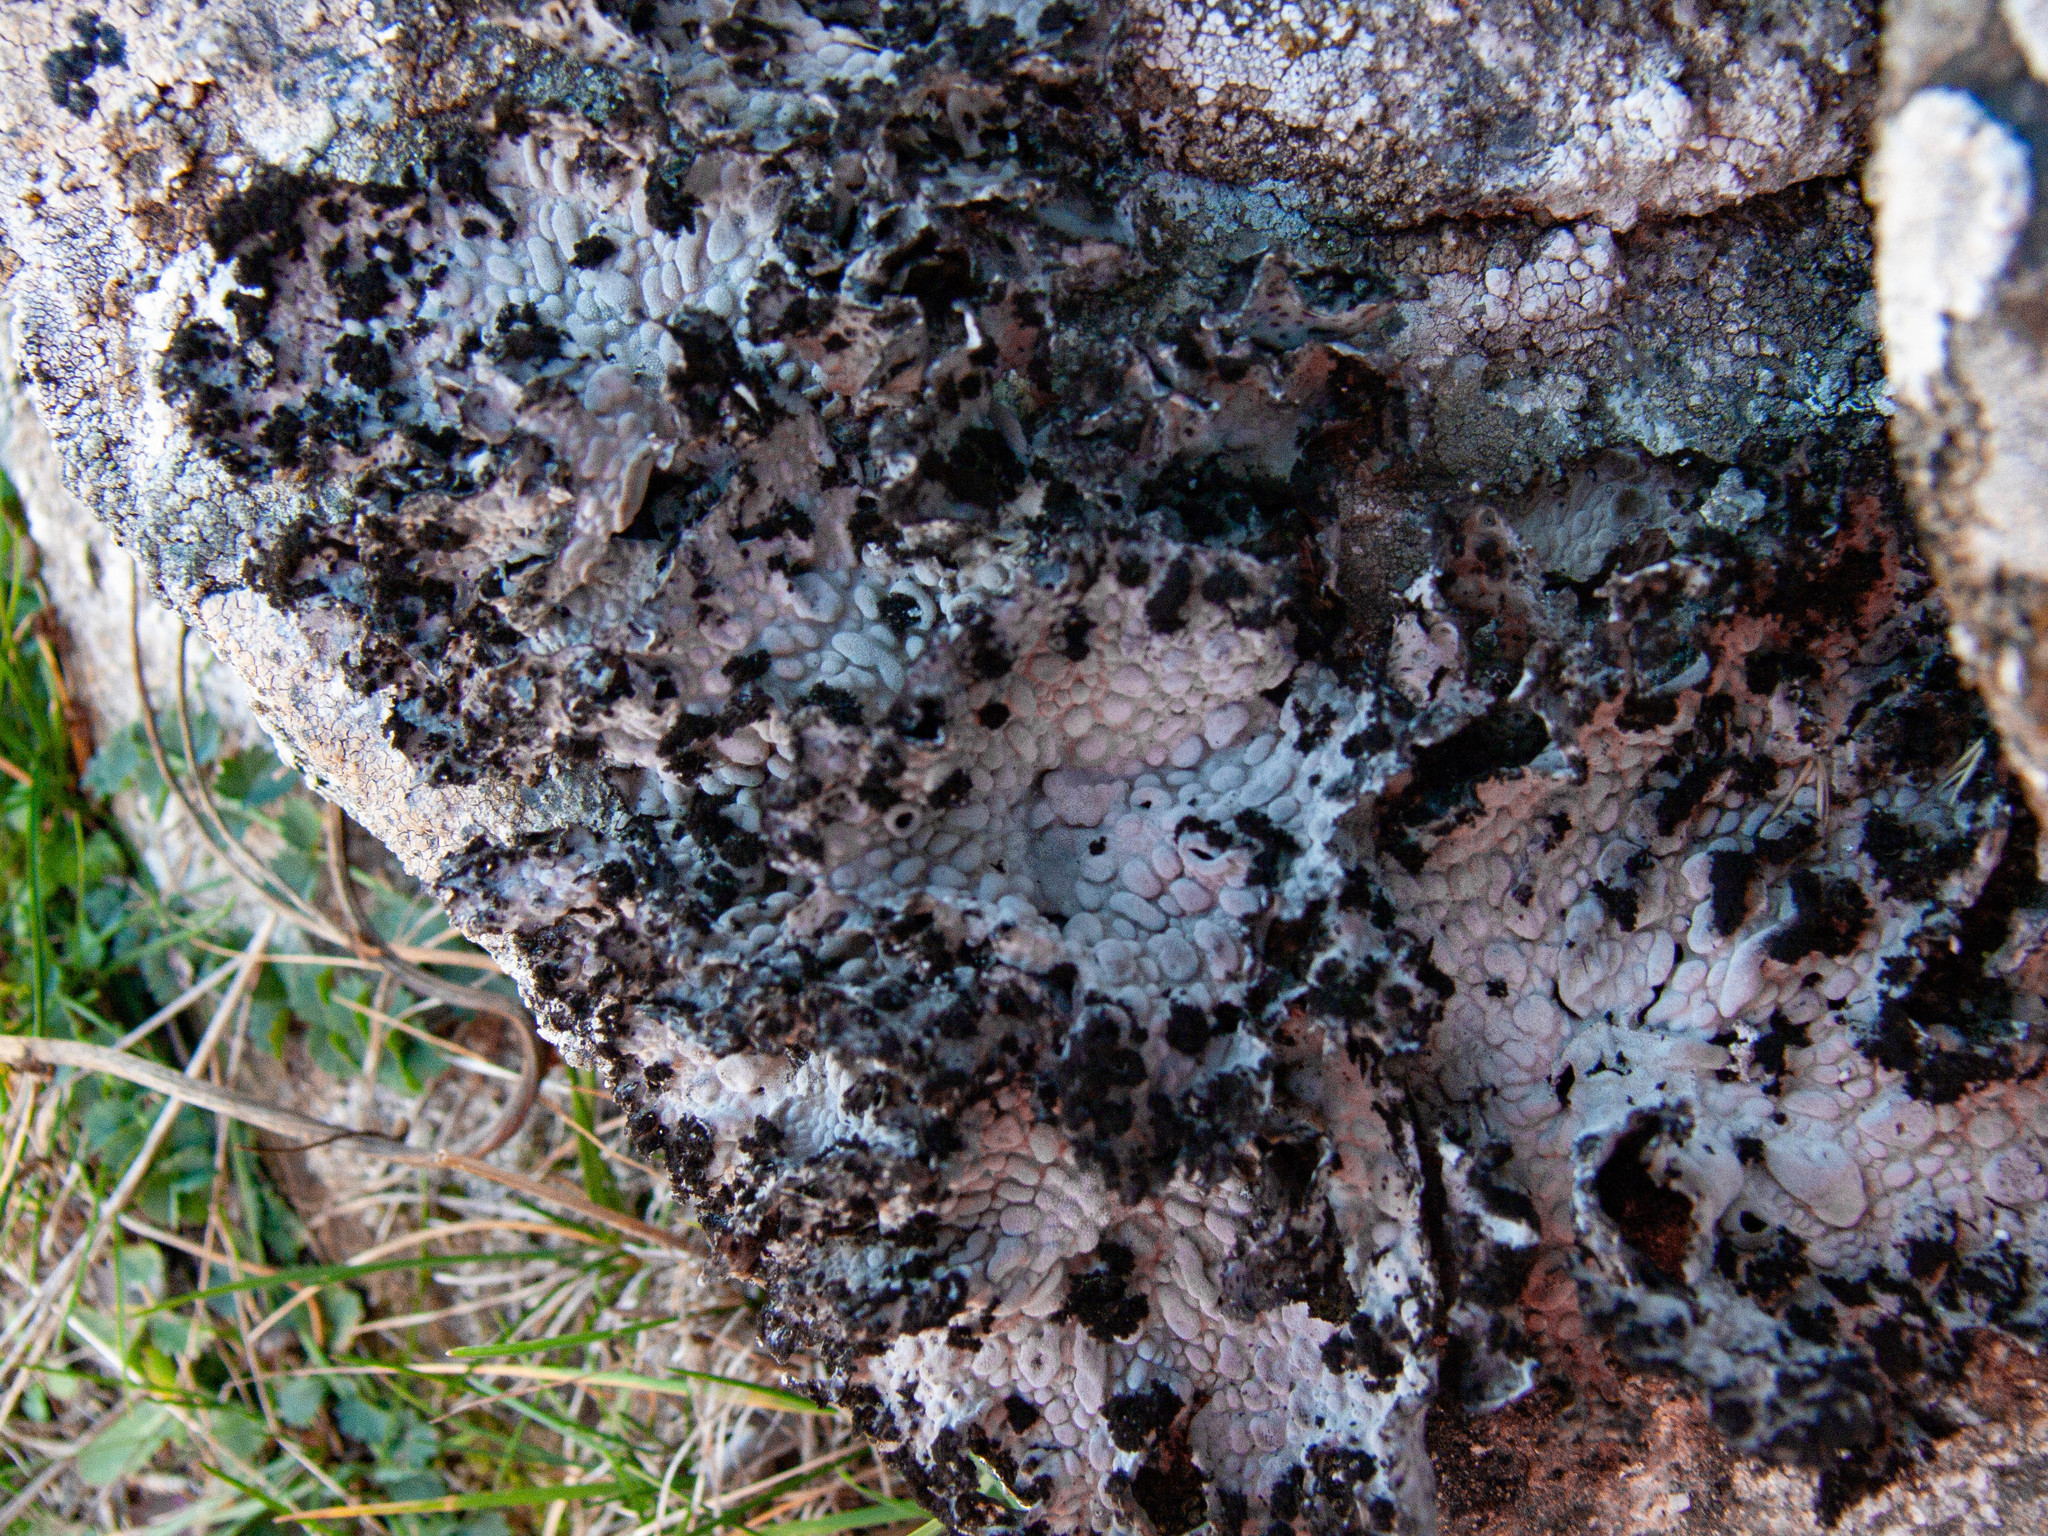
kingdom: Fungi
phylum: Ascomycota
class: Lecanoromycetes
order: Umbilicariales
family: Umbilicariaceae
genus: Lasallia
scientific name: Lasallia pustulata
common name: Blistered toadskin lichen
